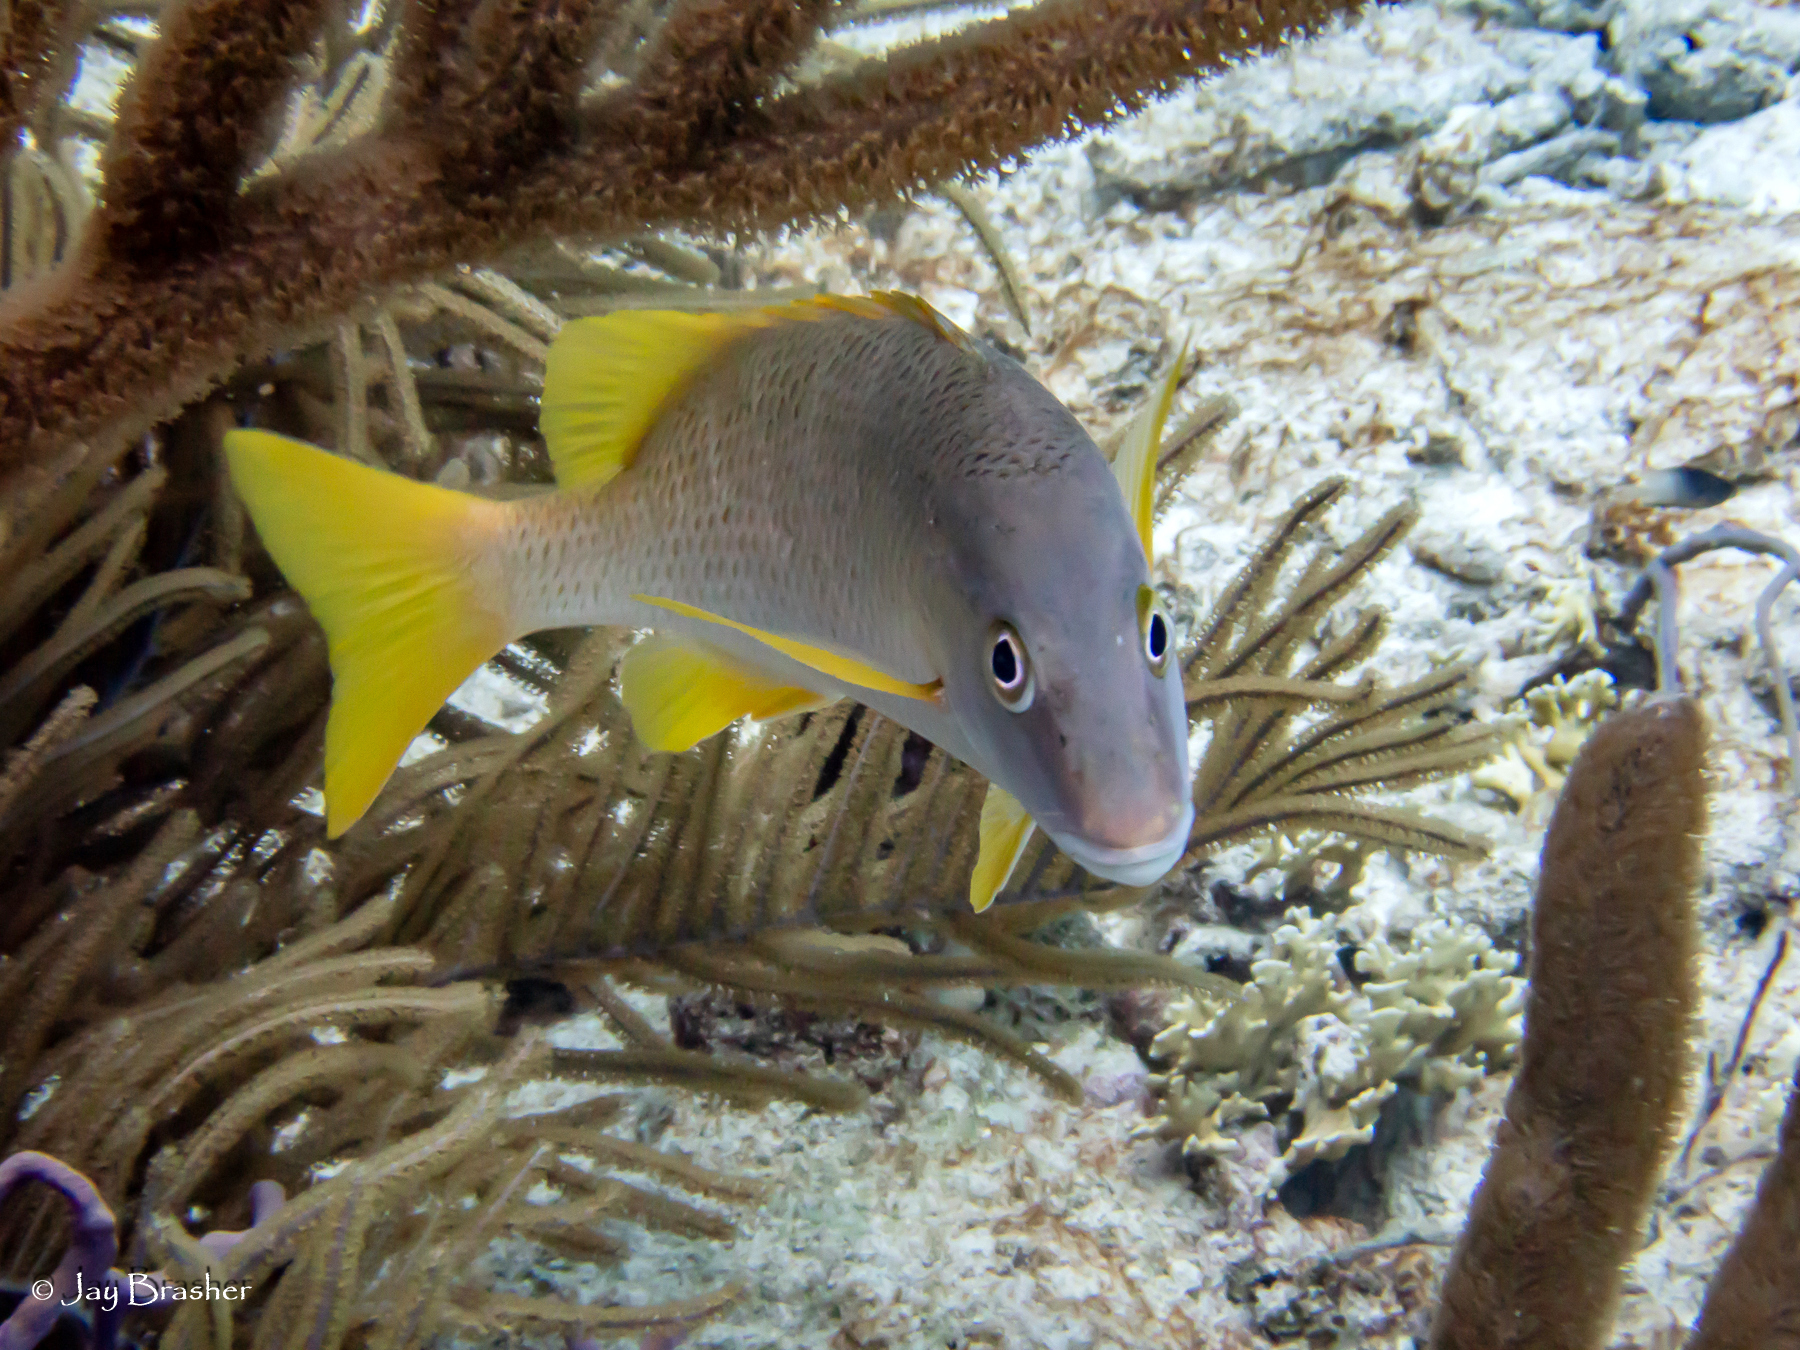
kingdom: Animalia
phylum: Chordata
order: Perciformes
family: Lutjanidae
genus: Lutjanus
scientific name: Lutjanus apodus
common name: Schoolmaster
